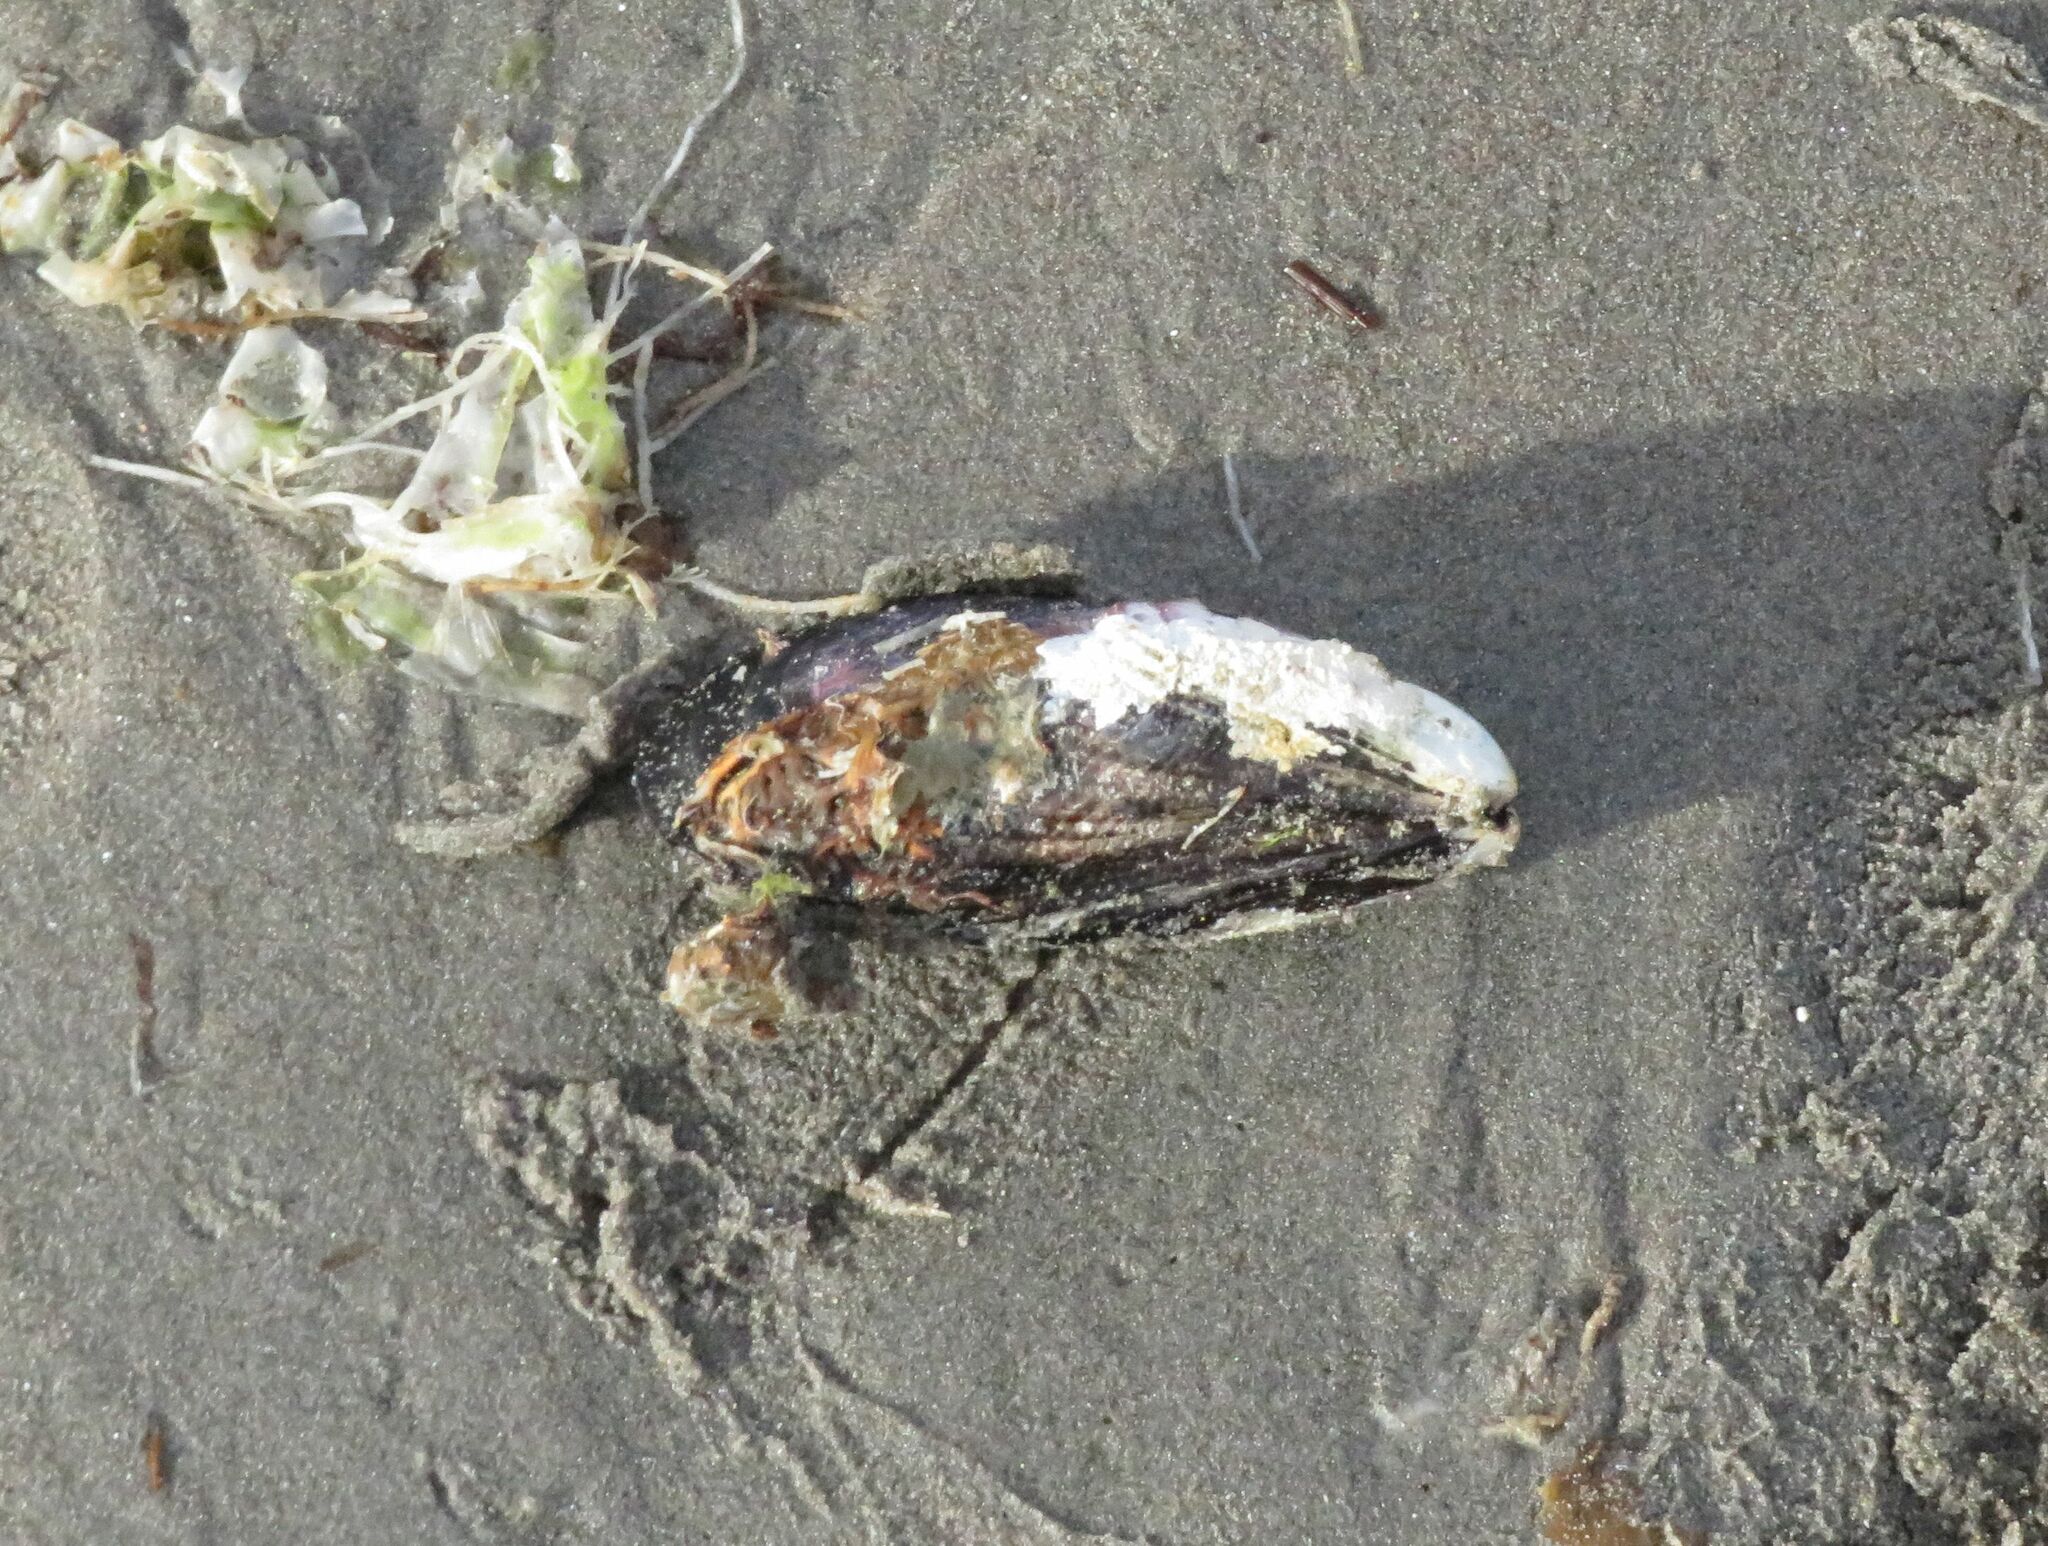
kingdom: Animalia
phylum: Mollusca
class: Bivalvia
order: Mytilida
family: Mytilidae
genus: Aulacomya
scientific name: Aulacomya atra
